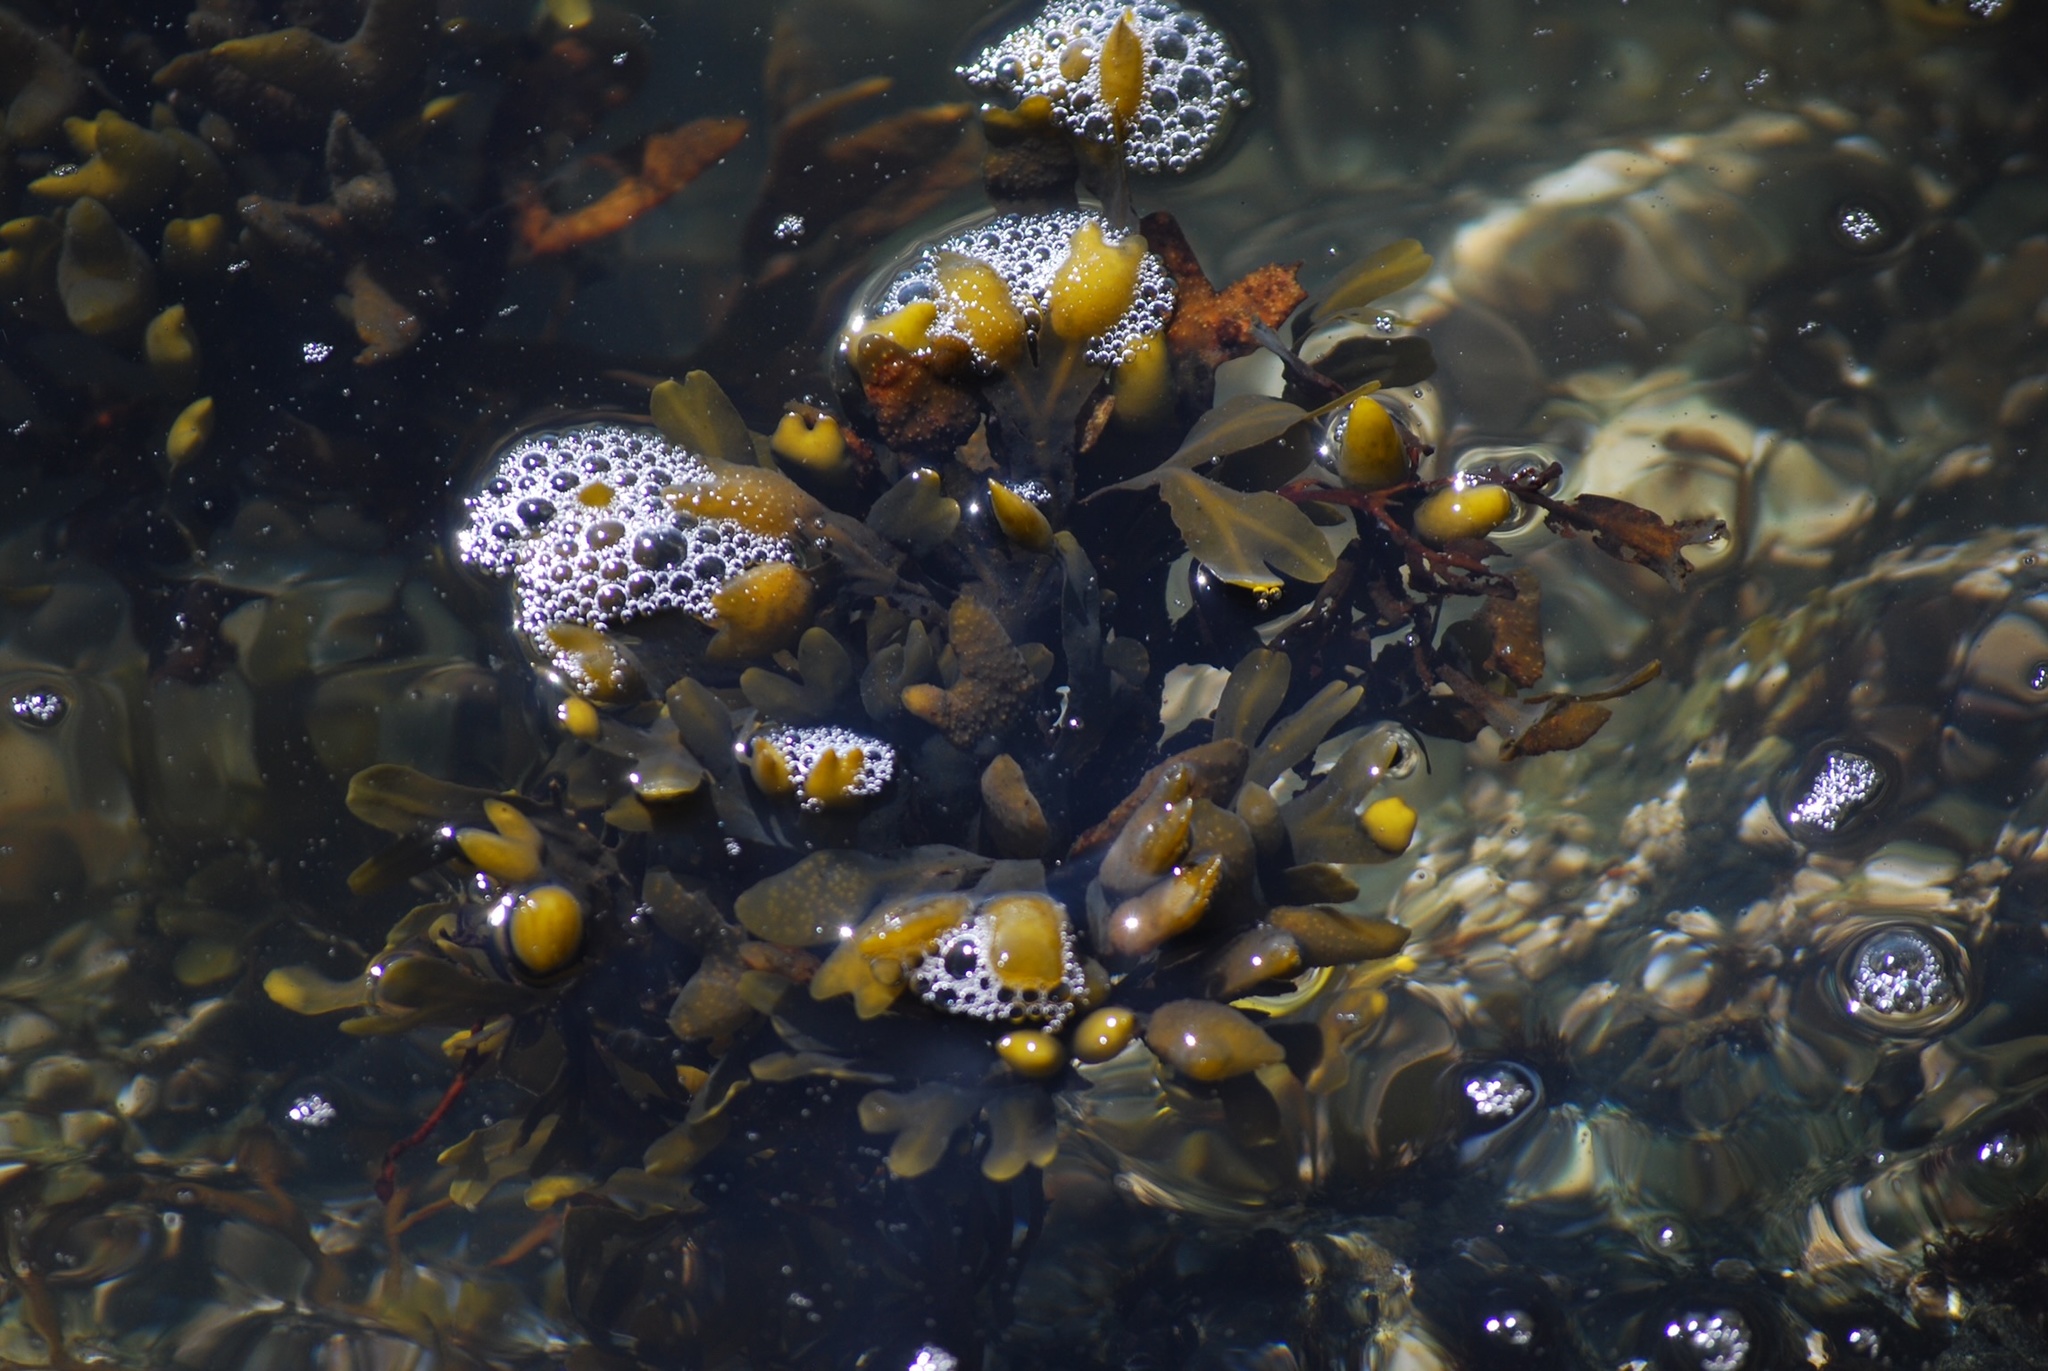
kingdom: Chromista
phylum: Ochrophyta
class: Phaeophyceae
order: Fucales
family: Fucaceae
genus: Fucus
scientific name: Fucus distichus
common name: Rockweed
